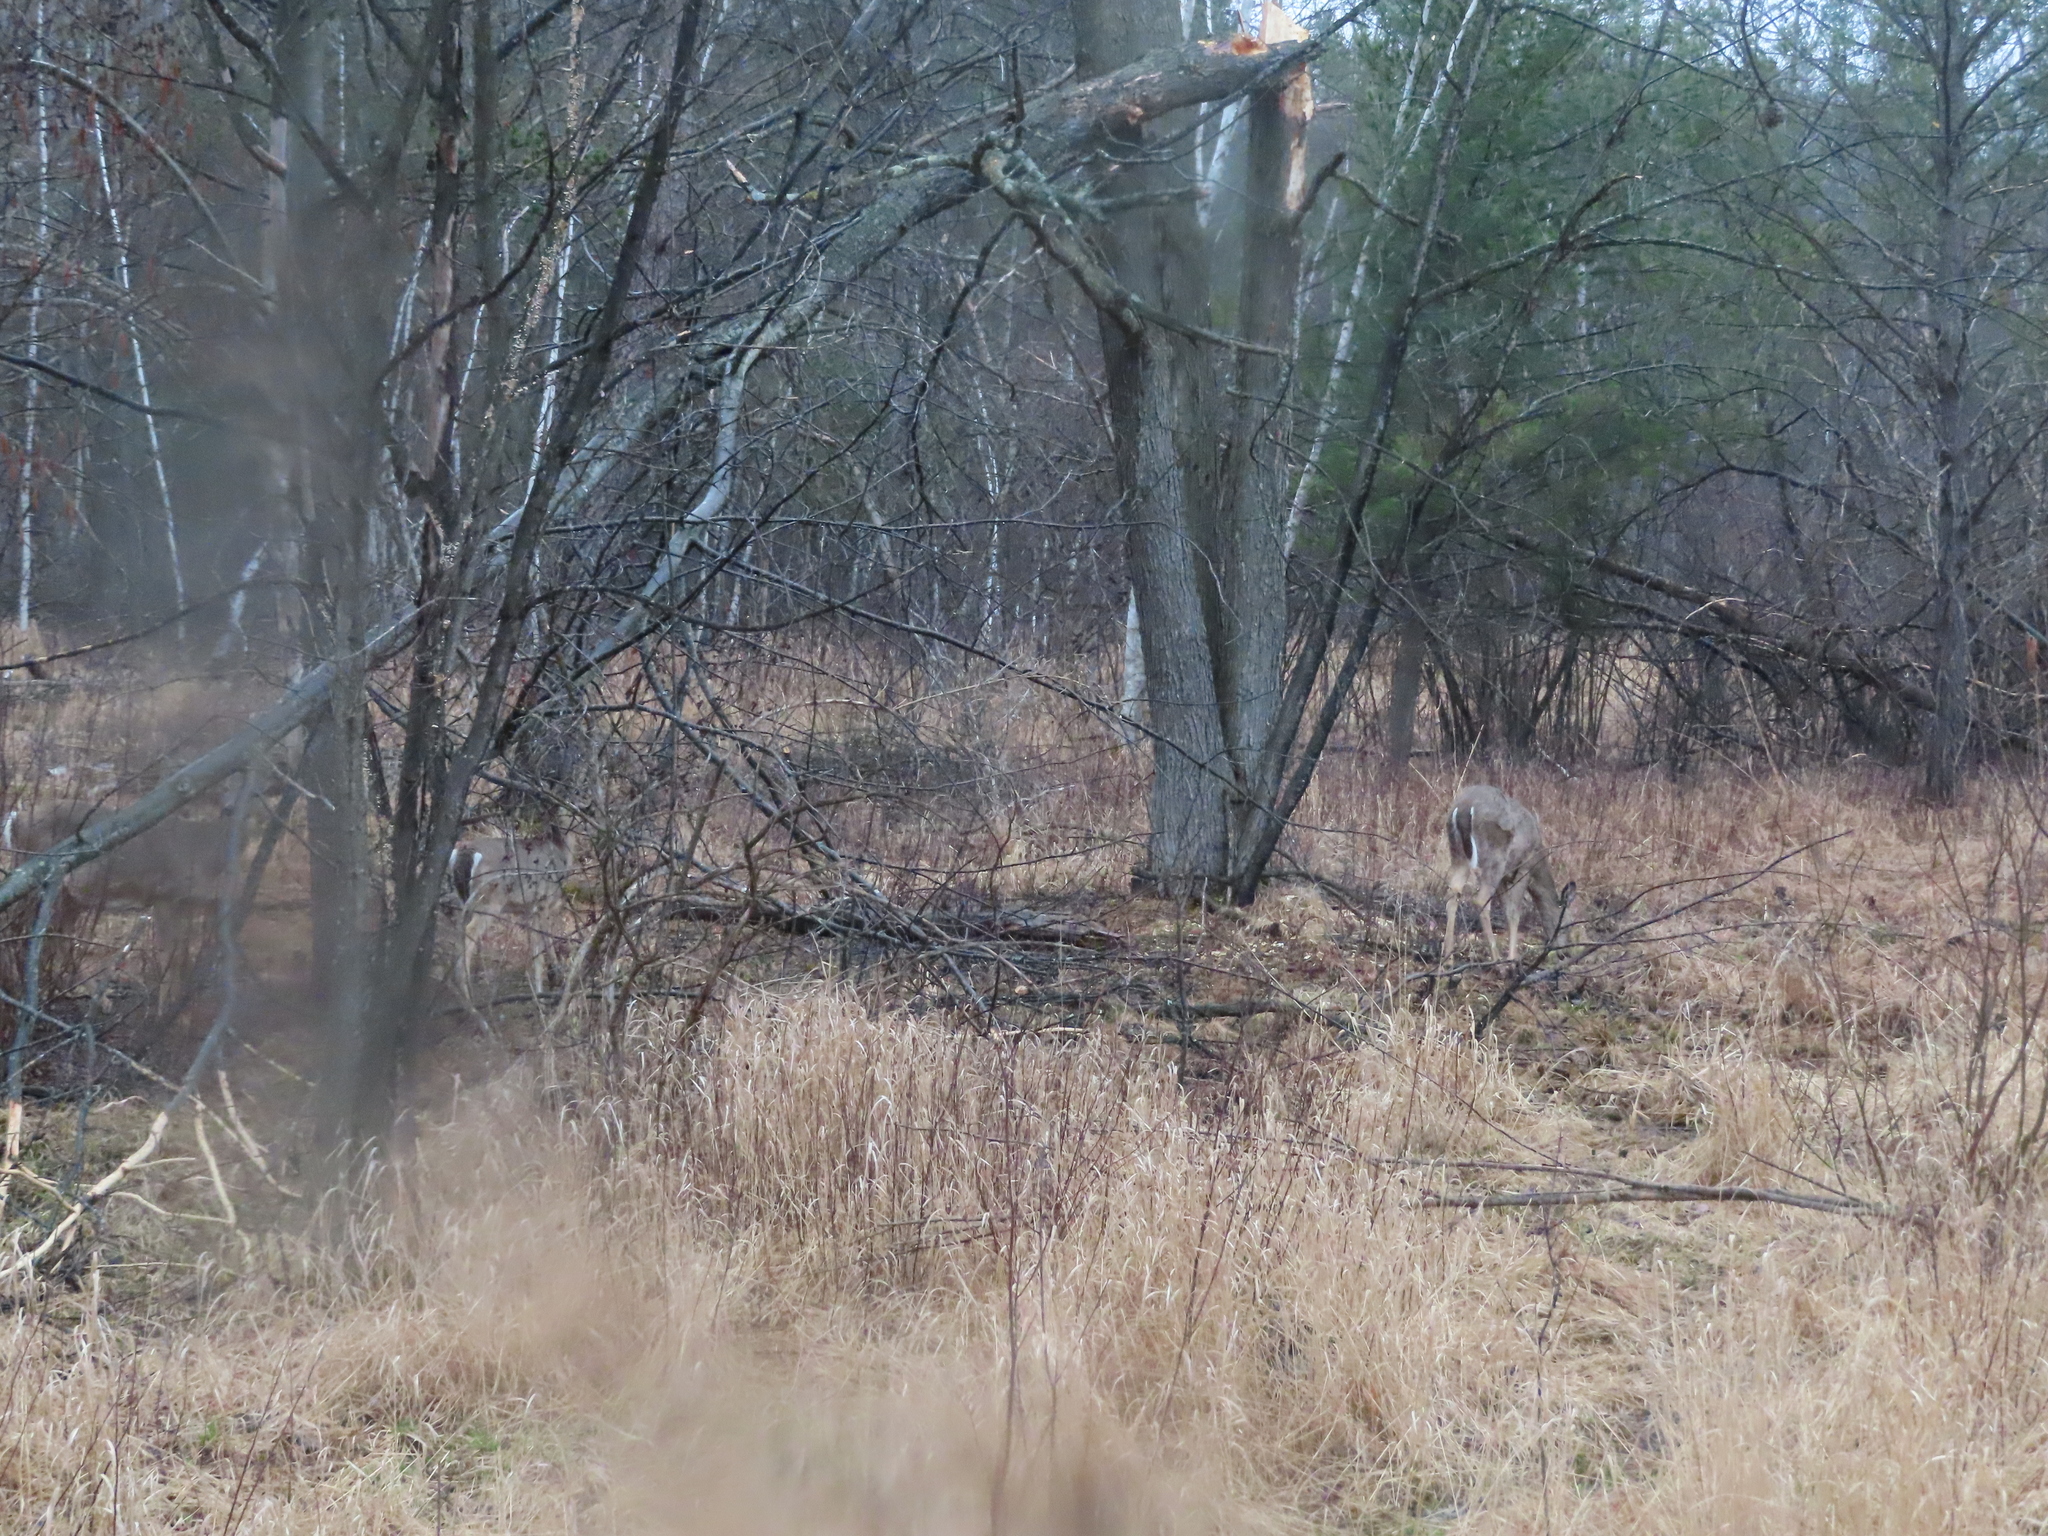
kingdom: Animalia
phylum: Chordata
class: Mammalia
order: Artiodactyla
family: Cervidae
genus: Odocoileus
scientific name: Odocoileus virginianus
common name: White-tailed deer
